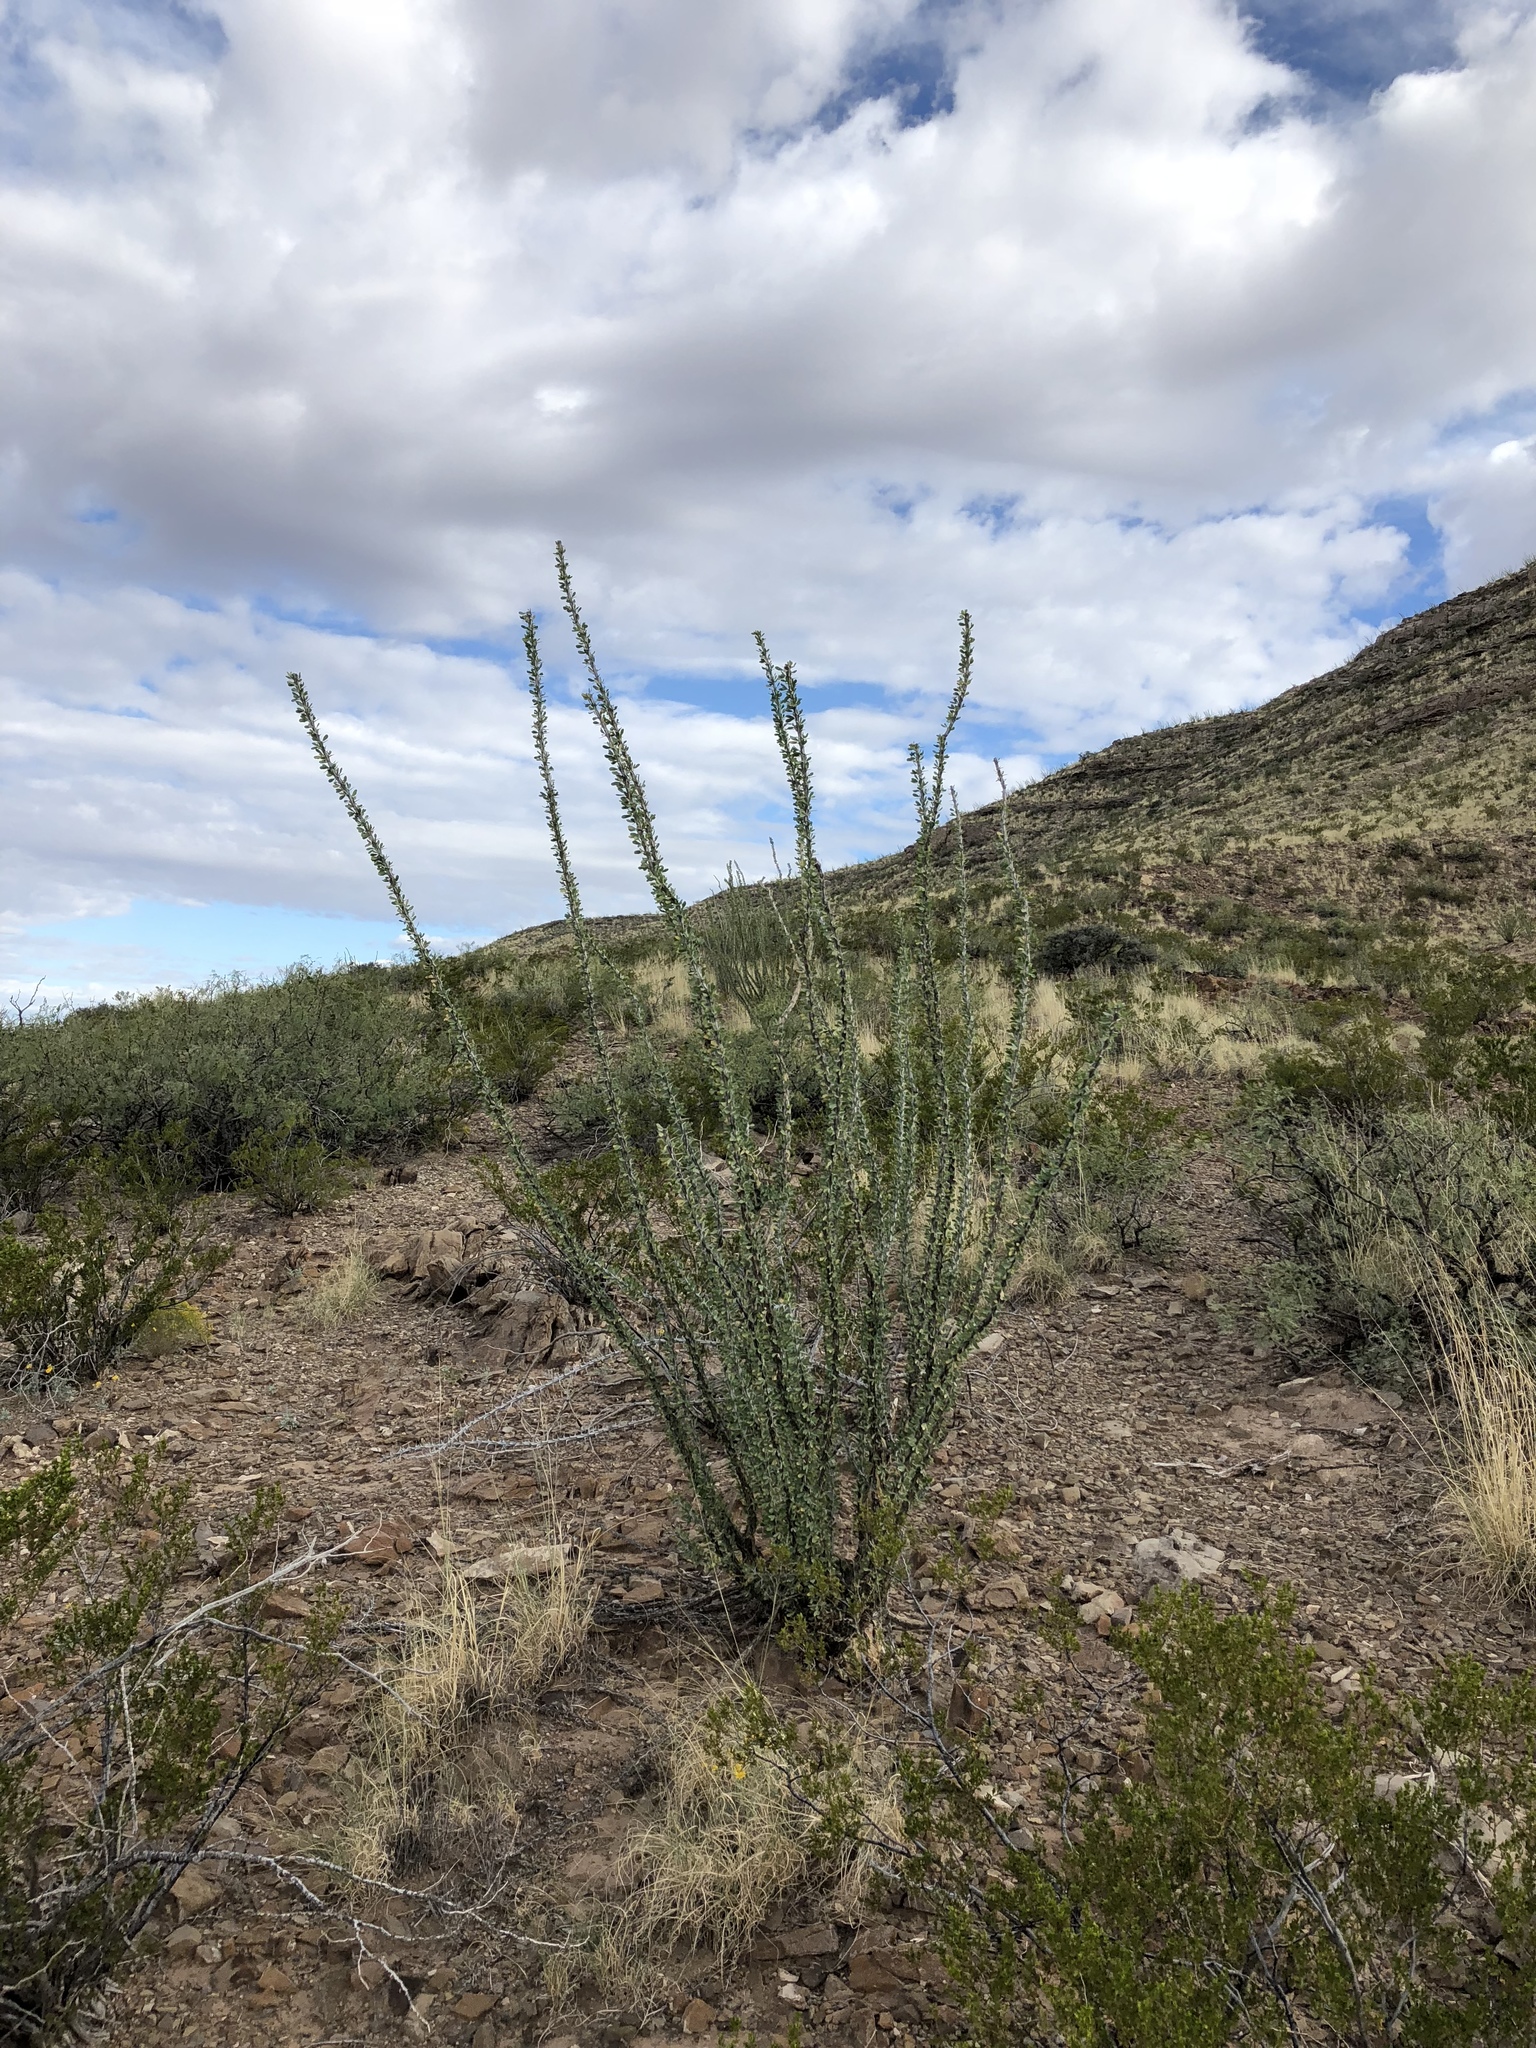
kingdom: Plantae
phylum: Tracheophyta
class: Magnoliopsida
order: Ericales
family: Fouquieriaceae
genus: Fouquieria
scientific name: Fouquieria splendens
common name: Vine-cactus
